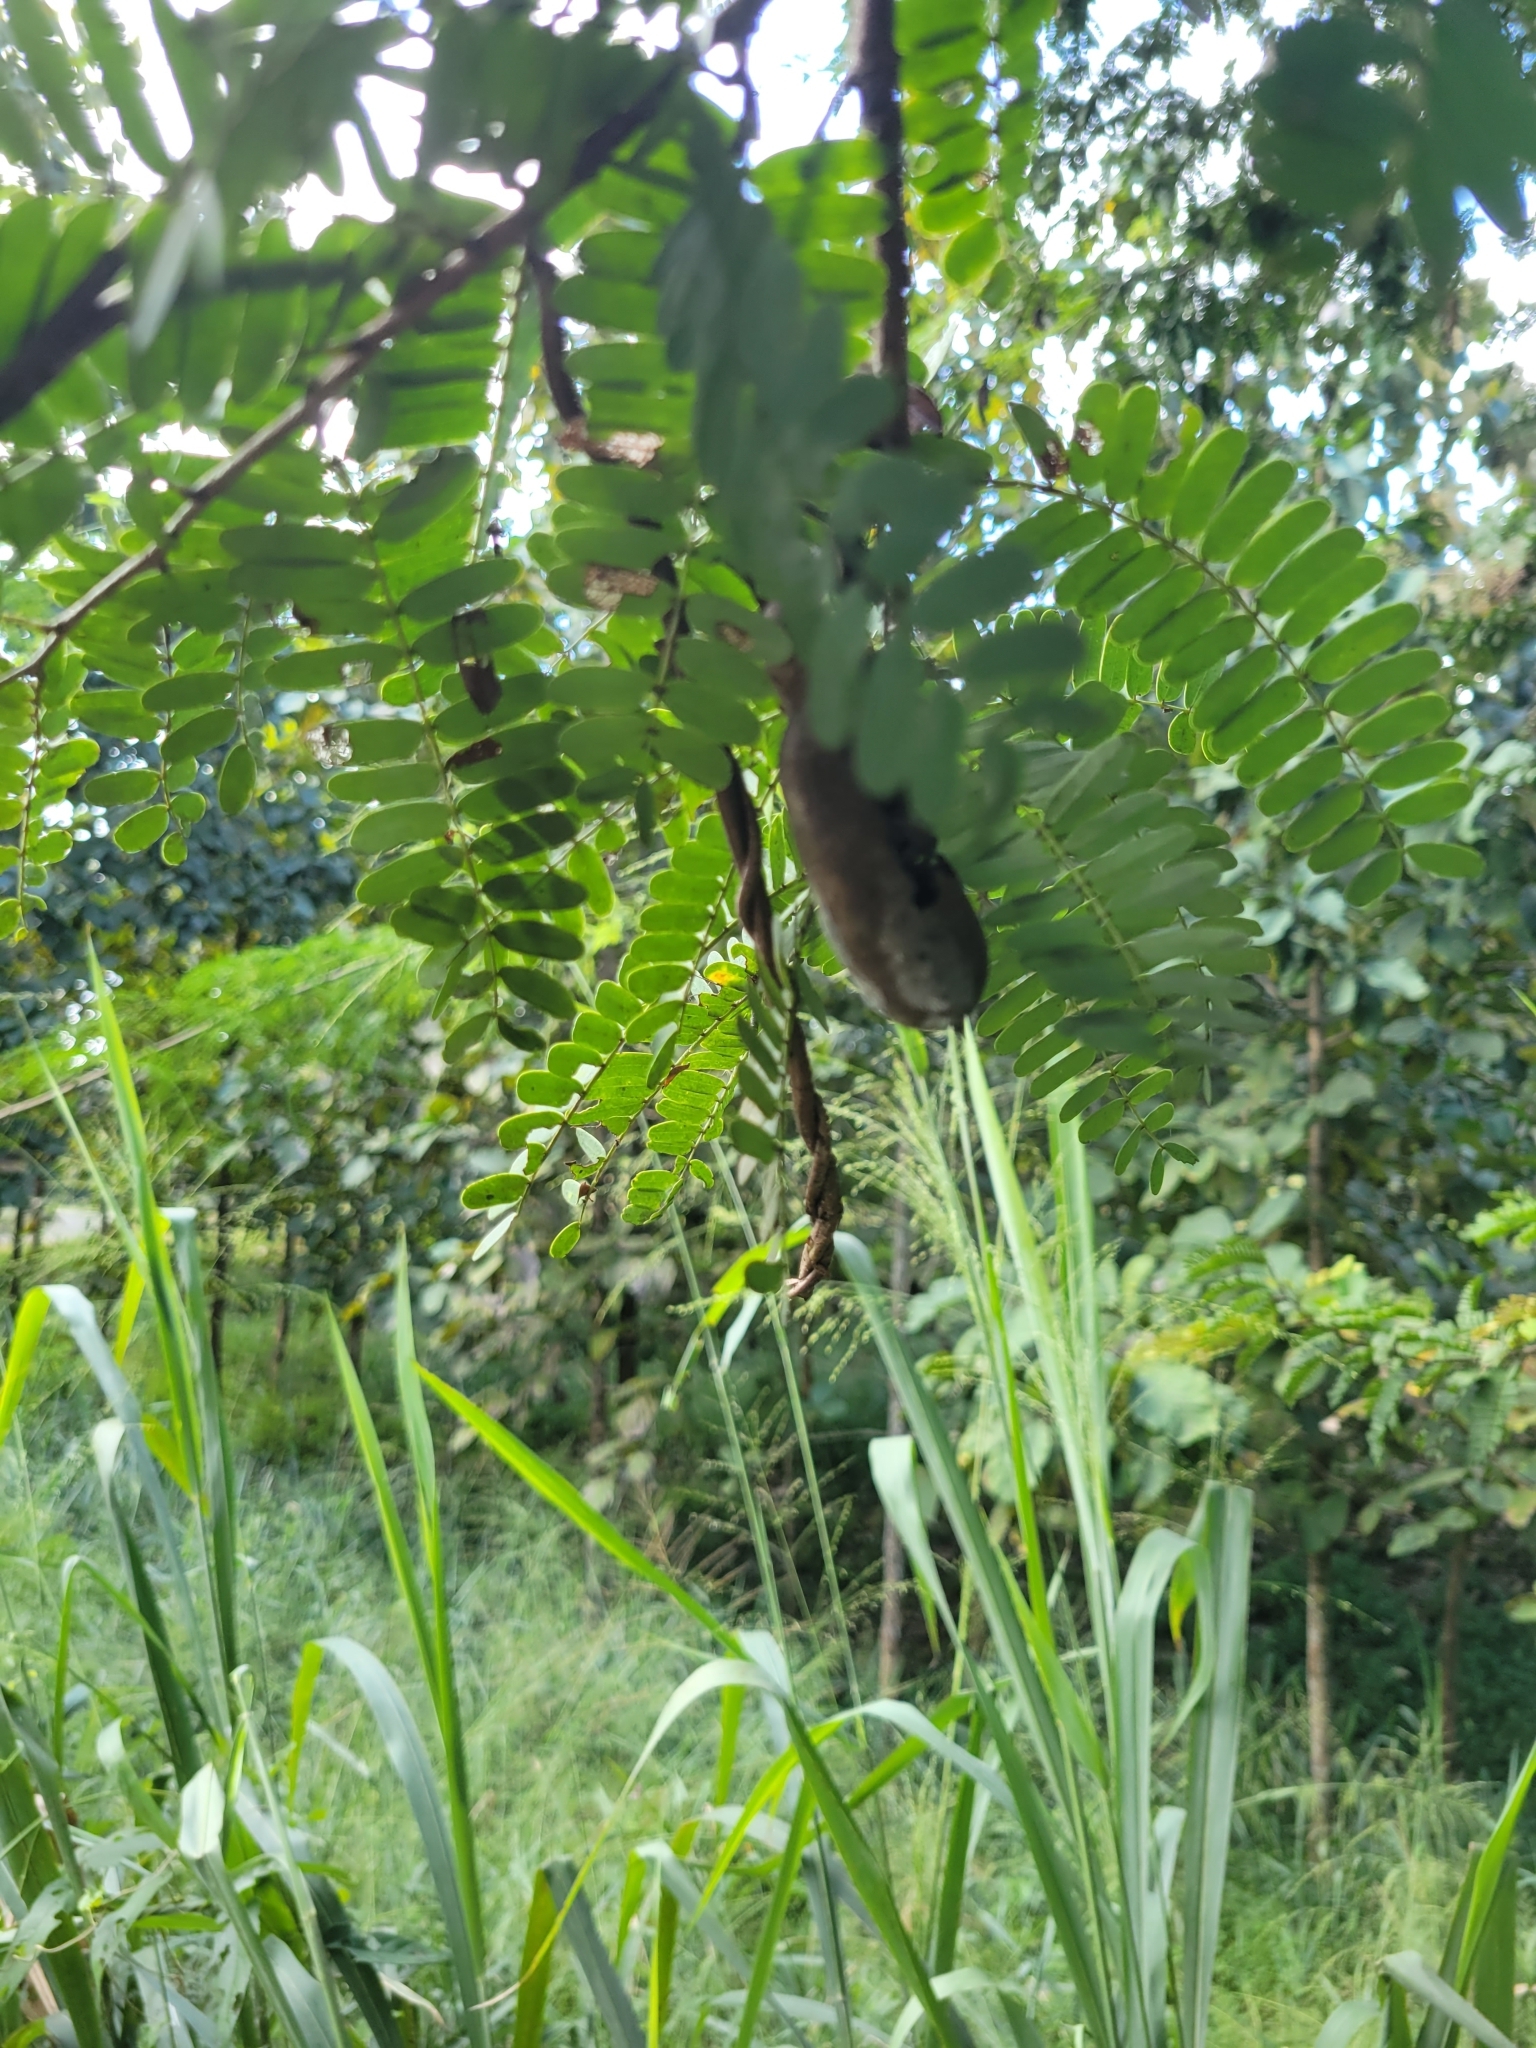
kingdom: Plantae
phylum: Tracheophyta
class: Magnoliopsida
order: Fabales
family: Fabaceae
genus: Tamarindus
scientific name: Tamarindus indica
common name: Tamarind
